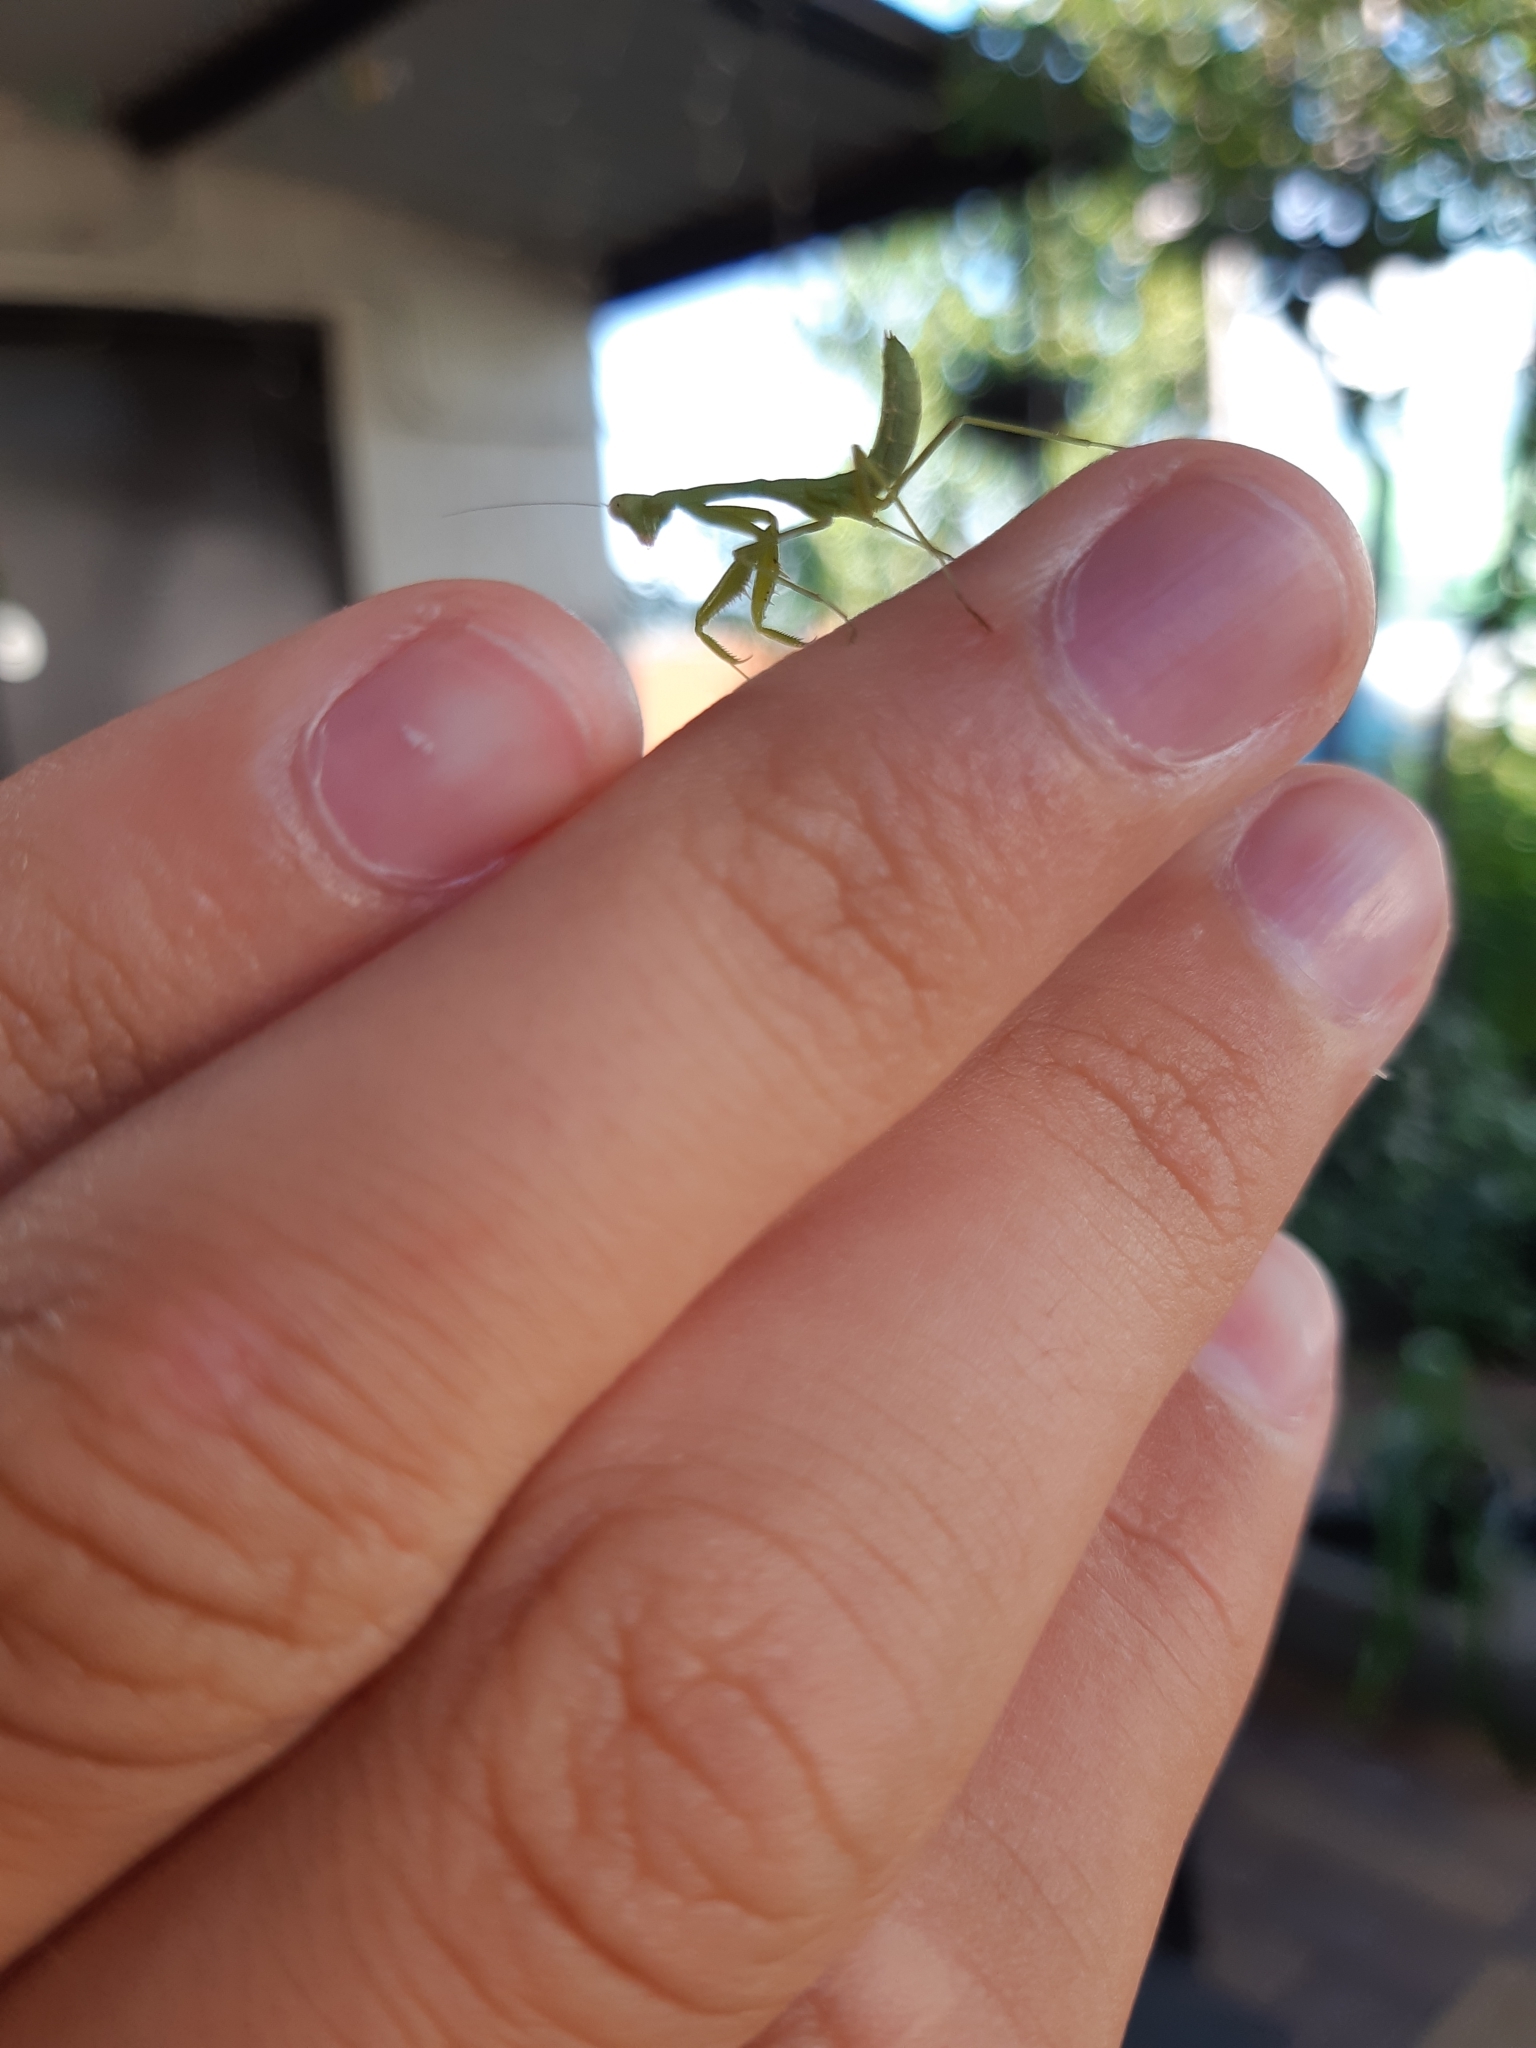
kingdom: Animalia
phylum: Arthropoda
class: Insecta
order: Mantodea
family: Mantidae
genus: Hierodula
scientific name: Hierodula transcaucasica
